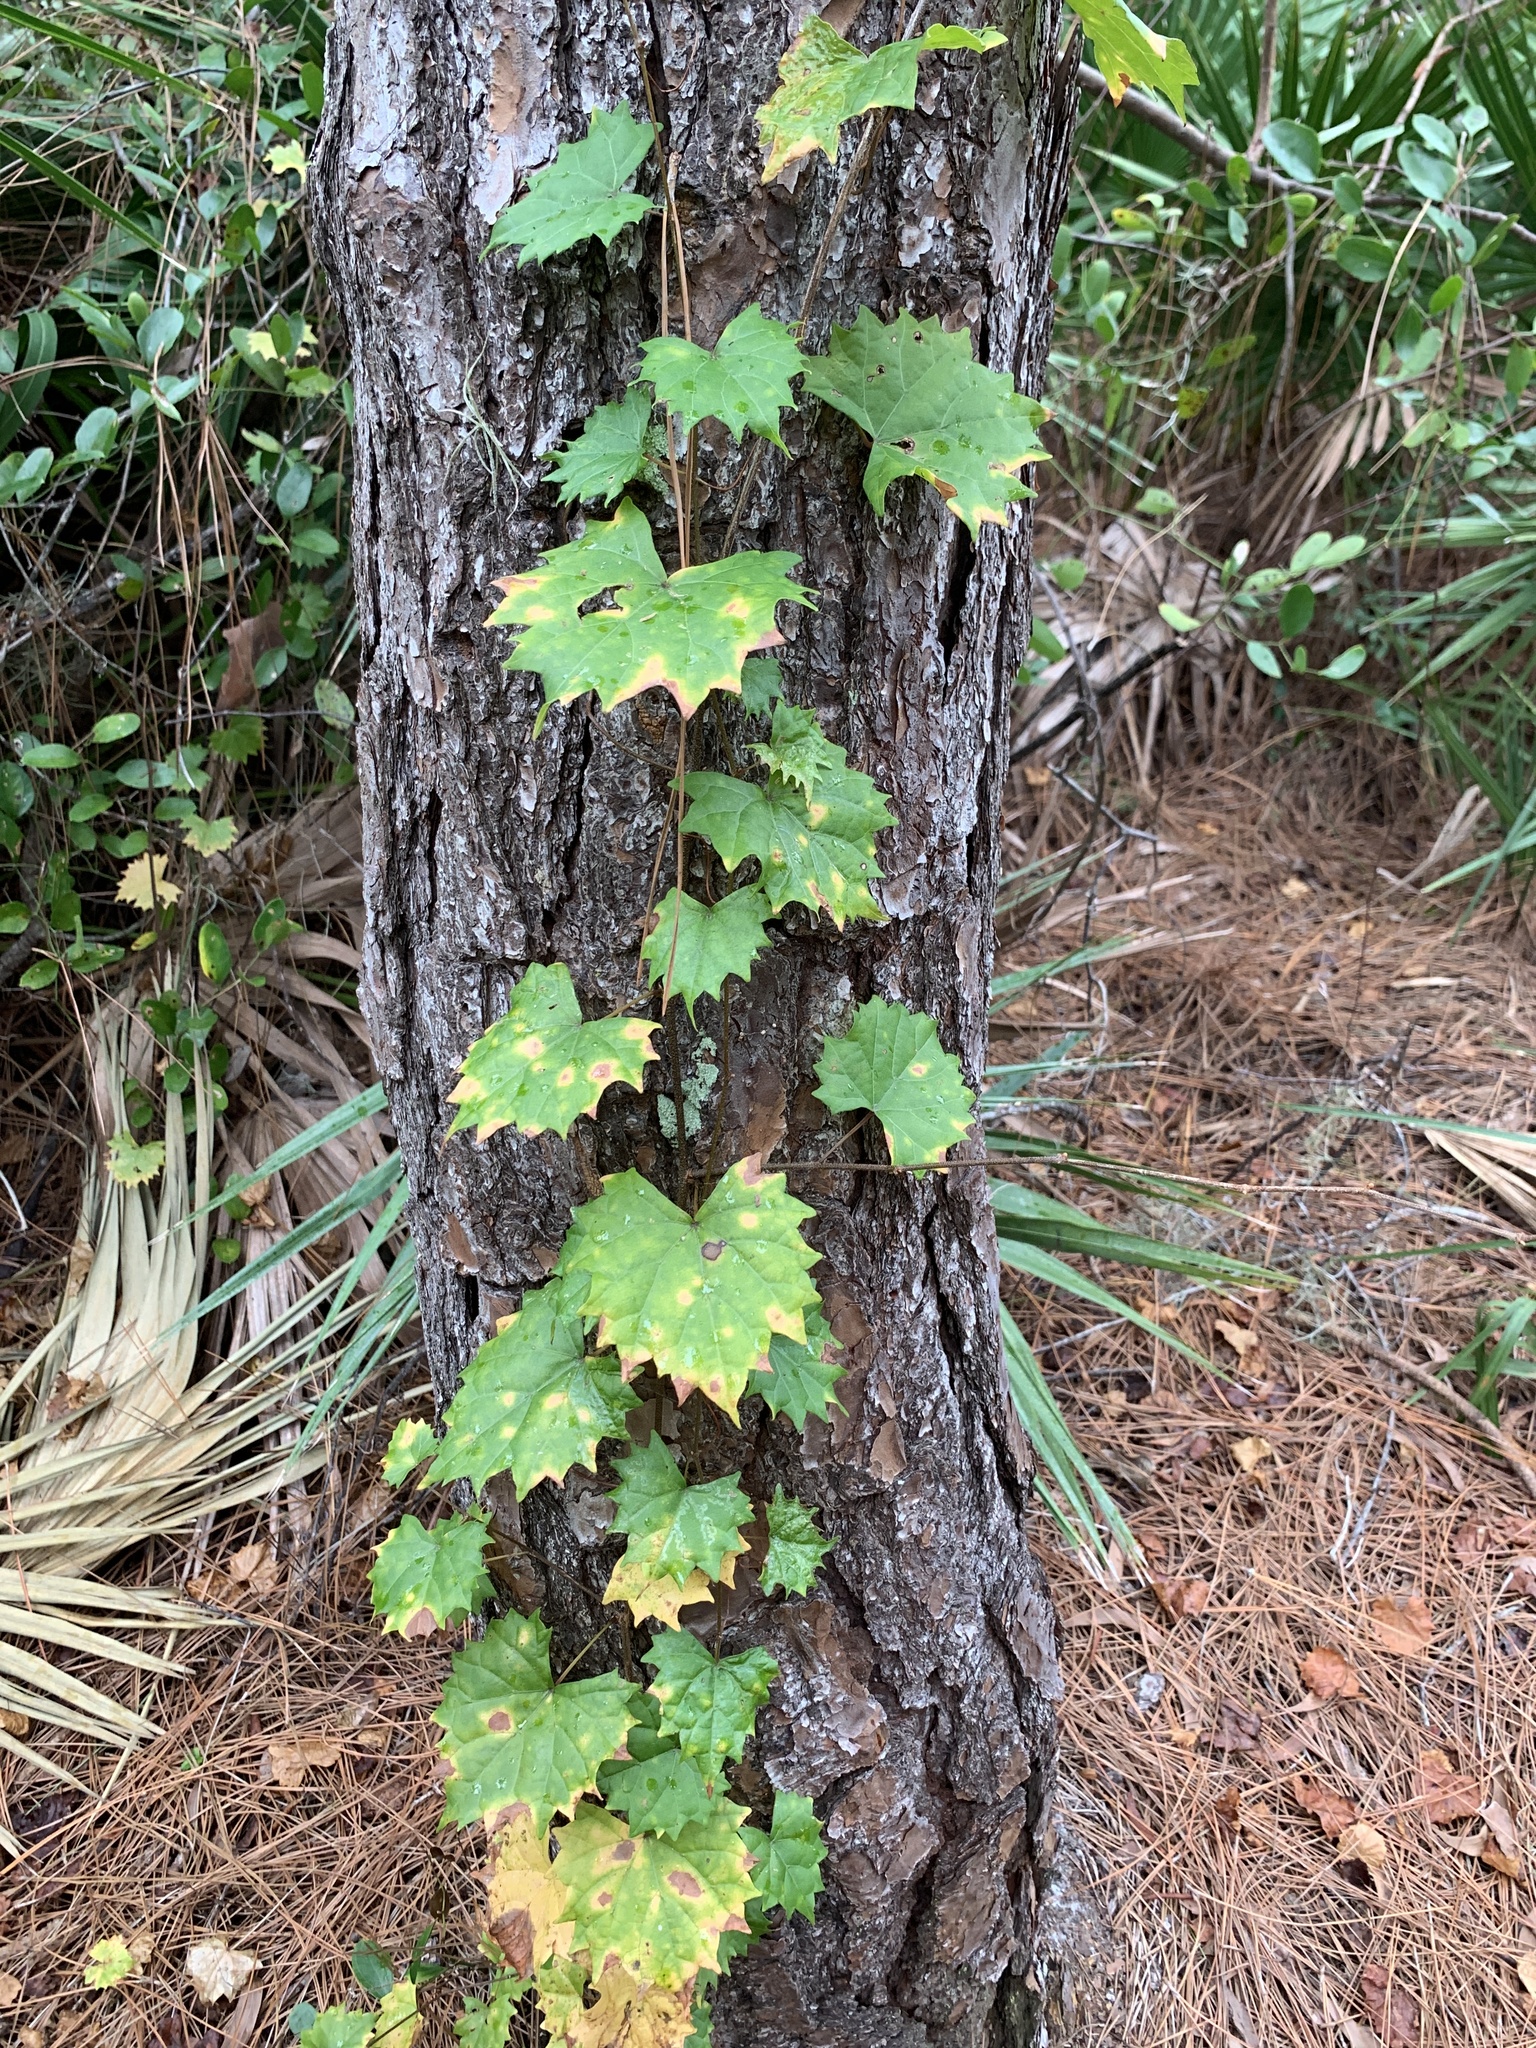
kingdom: Plantae
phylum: Tracheophyta
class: Magnoliopsida
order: Vitales
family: Vitaceae
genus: Vitis
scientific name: Vitis rotundifolia
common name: Muscadine grape
